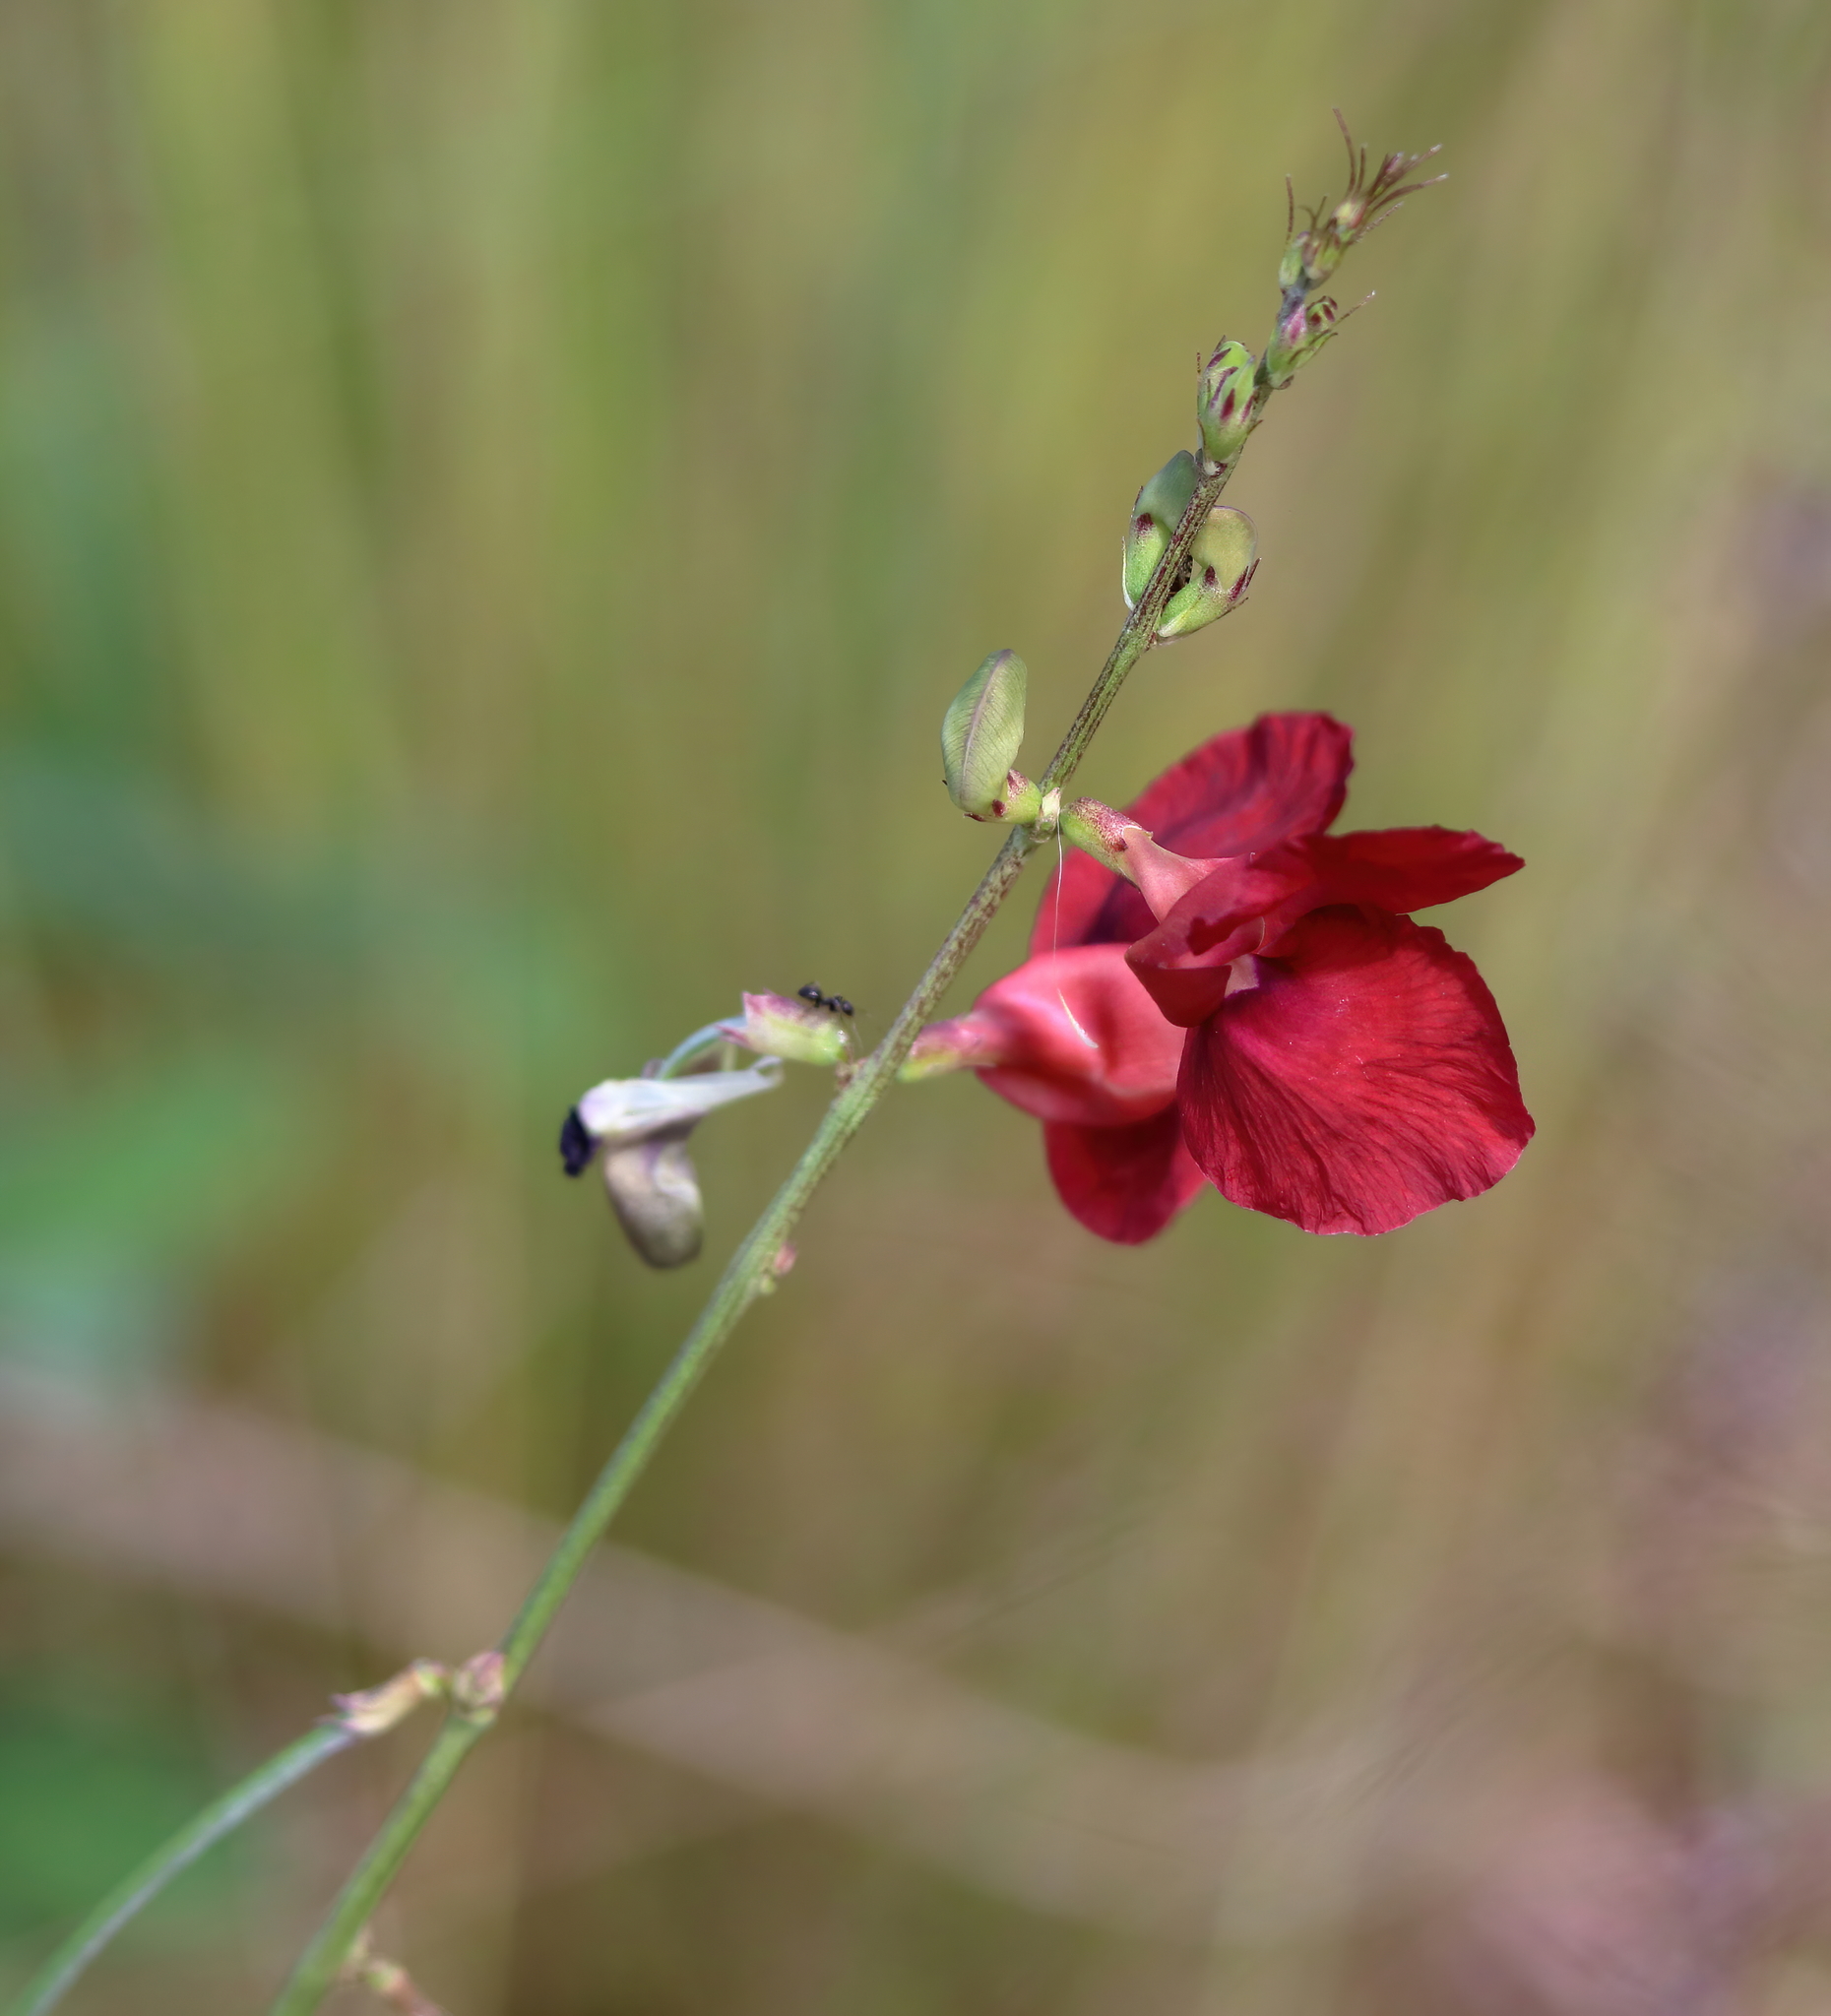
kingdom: Plantae
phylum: Tracheophyta
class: Magnoliopsida
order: Fabales
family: Fabaceae
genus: Macroptilium
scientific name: Macroptilium lathyroides
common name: Wild bushbean
